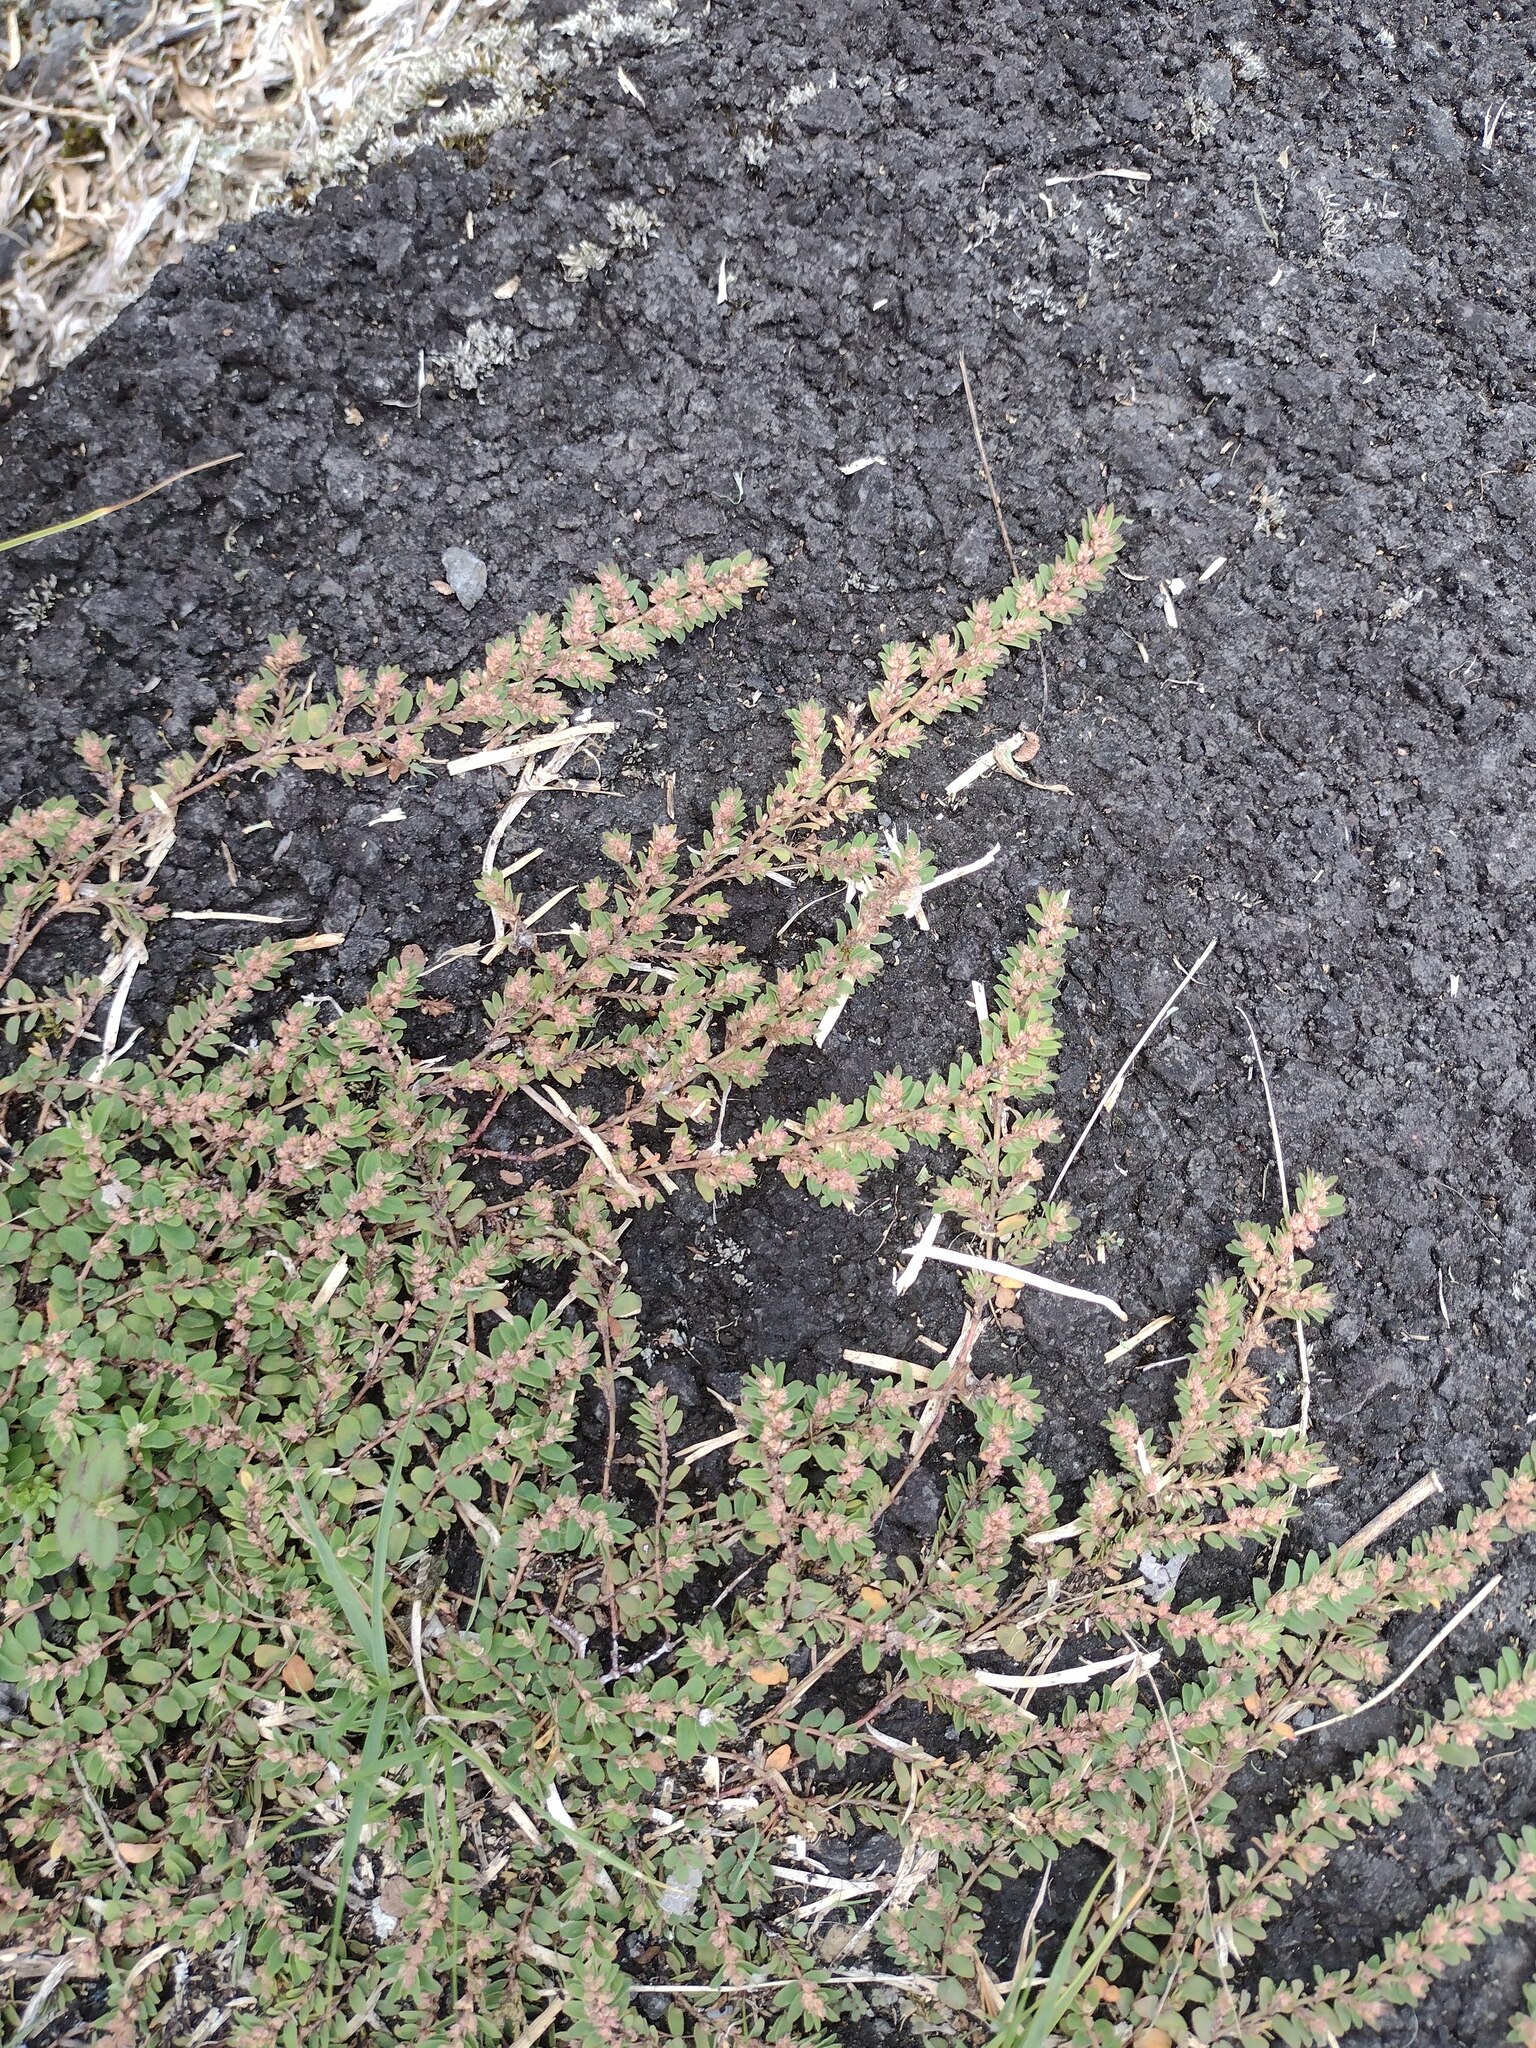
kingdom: Plantae
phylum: Tracheophyta
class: Magnoliopsida
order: Malpighiales
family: Euphorbiaceae
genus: Euphorbia
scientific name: Euphorbia thymifolia
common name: Gulf sandmat
